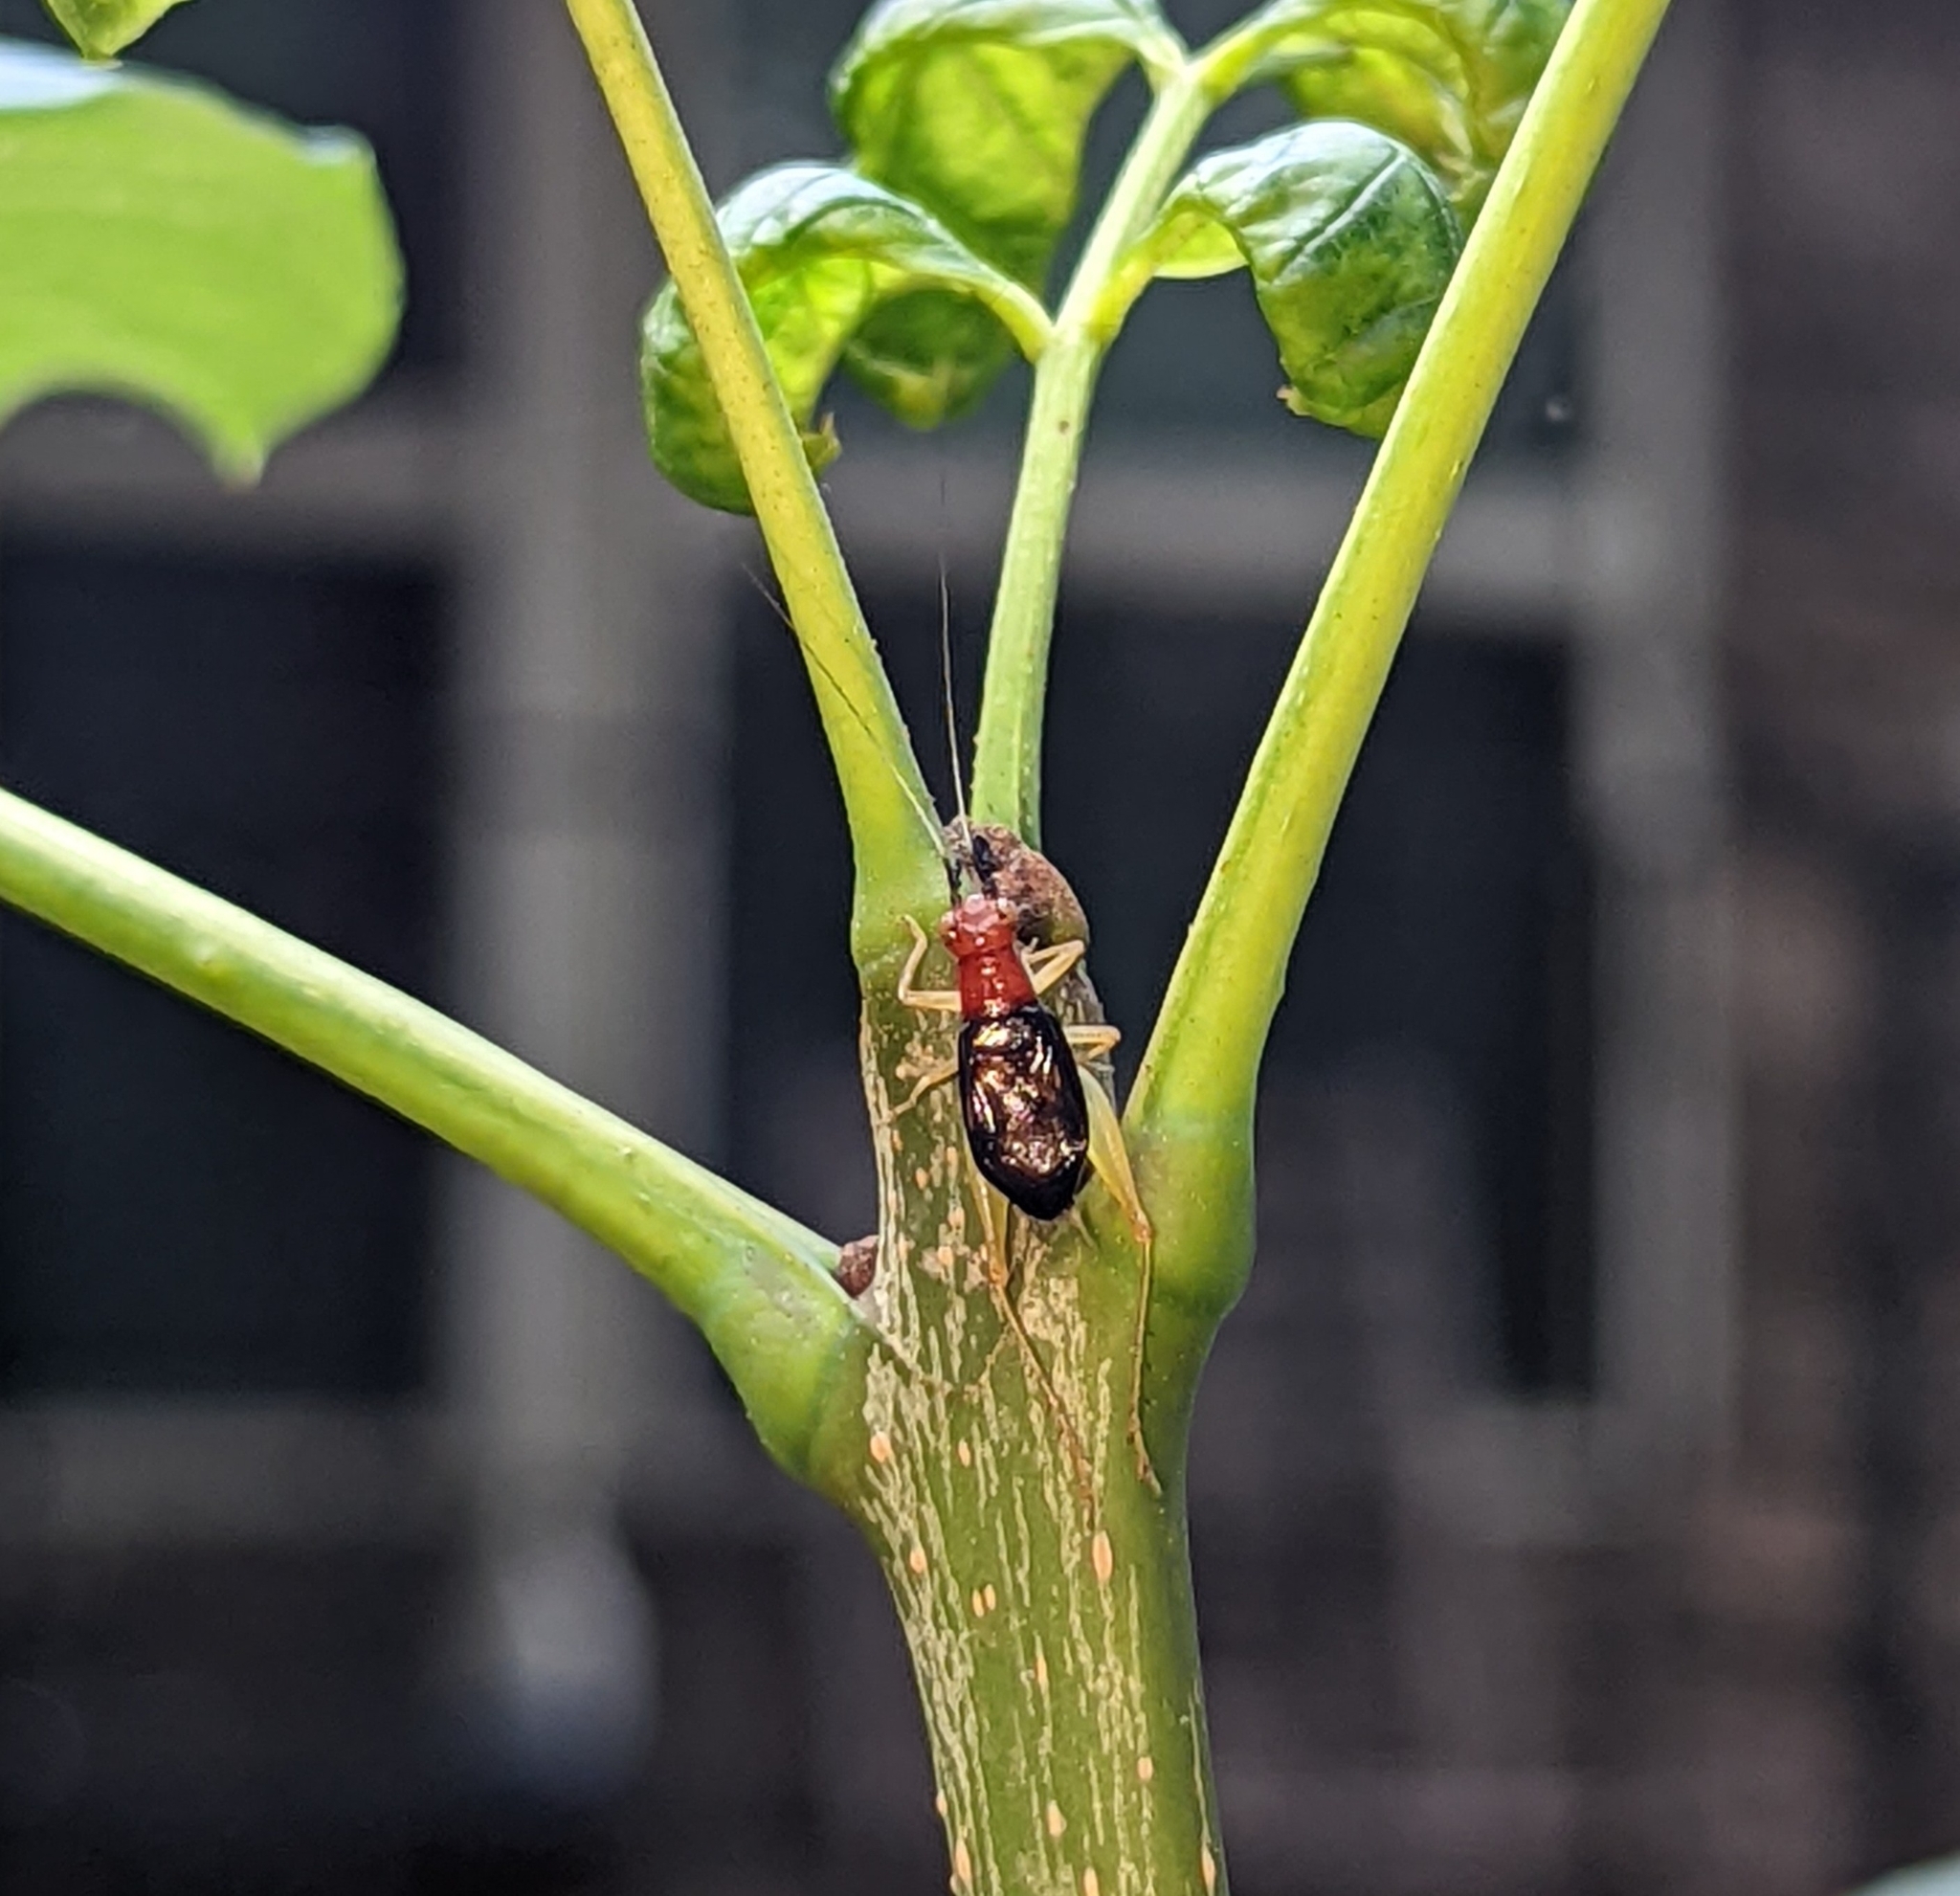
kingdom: Animalia
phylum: Arthropoda
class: Insecta
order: Orthoptera
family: Trigonidiidae
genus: Phyllopalpus
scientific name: Phyllopalpus pulchellus
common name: Handsome trig
